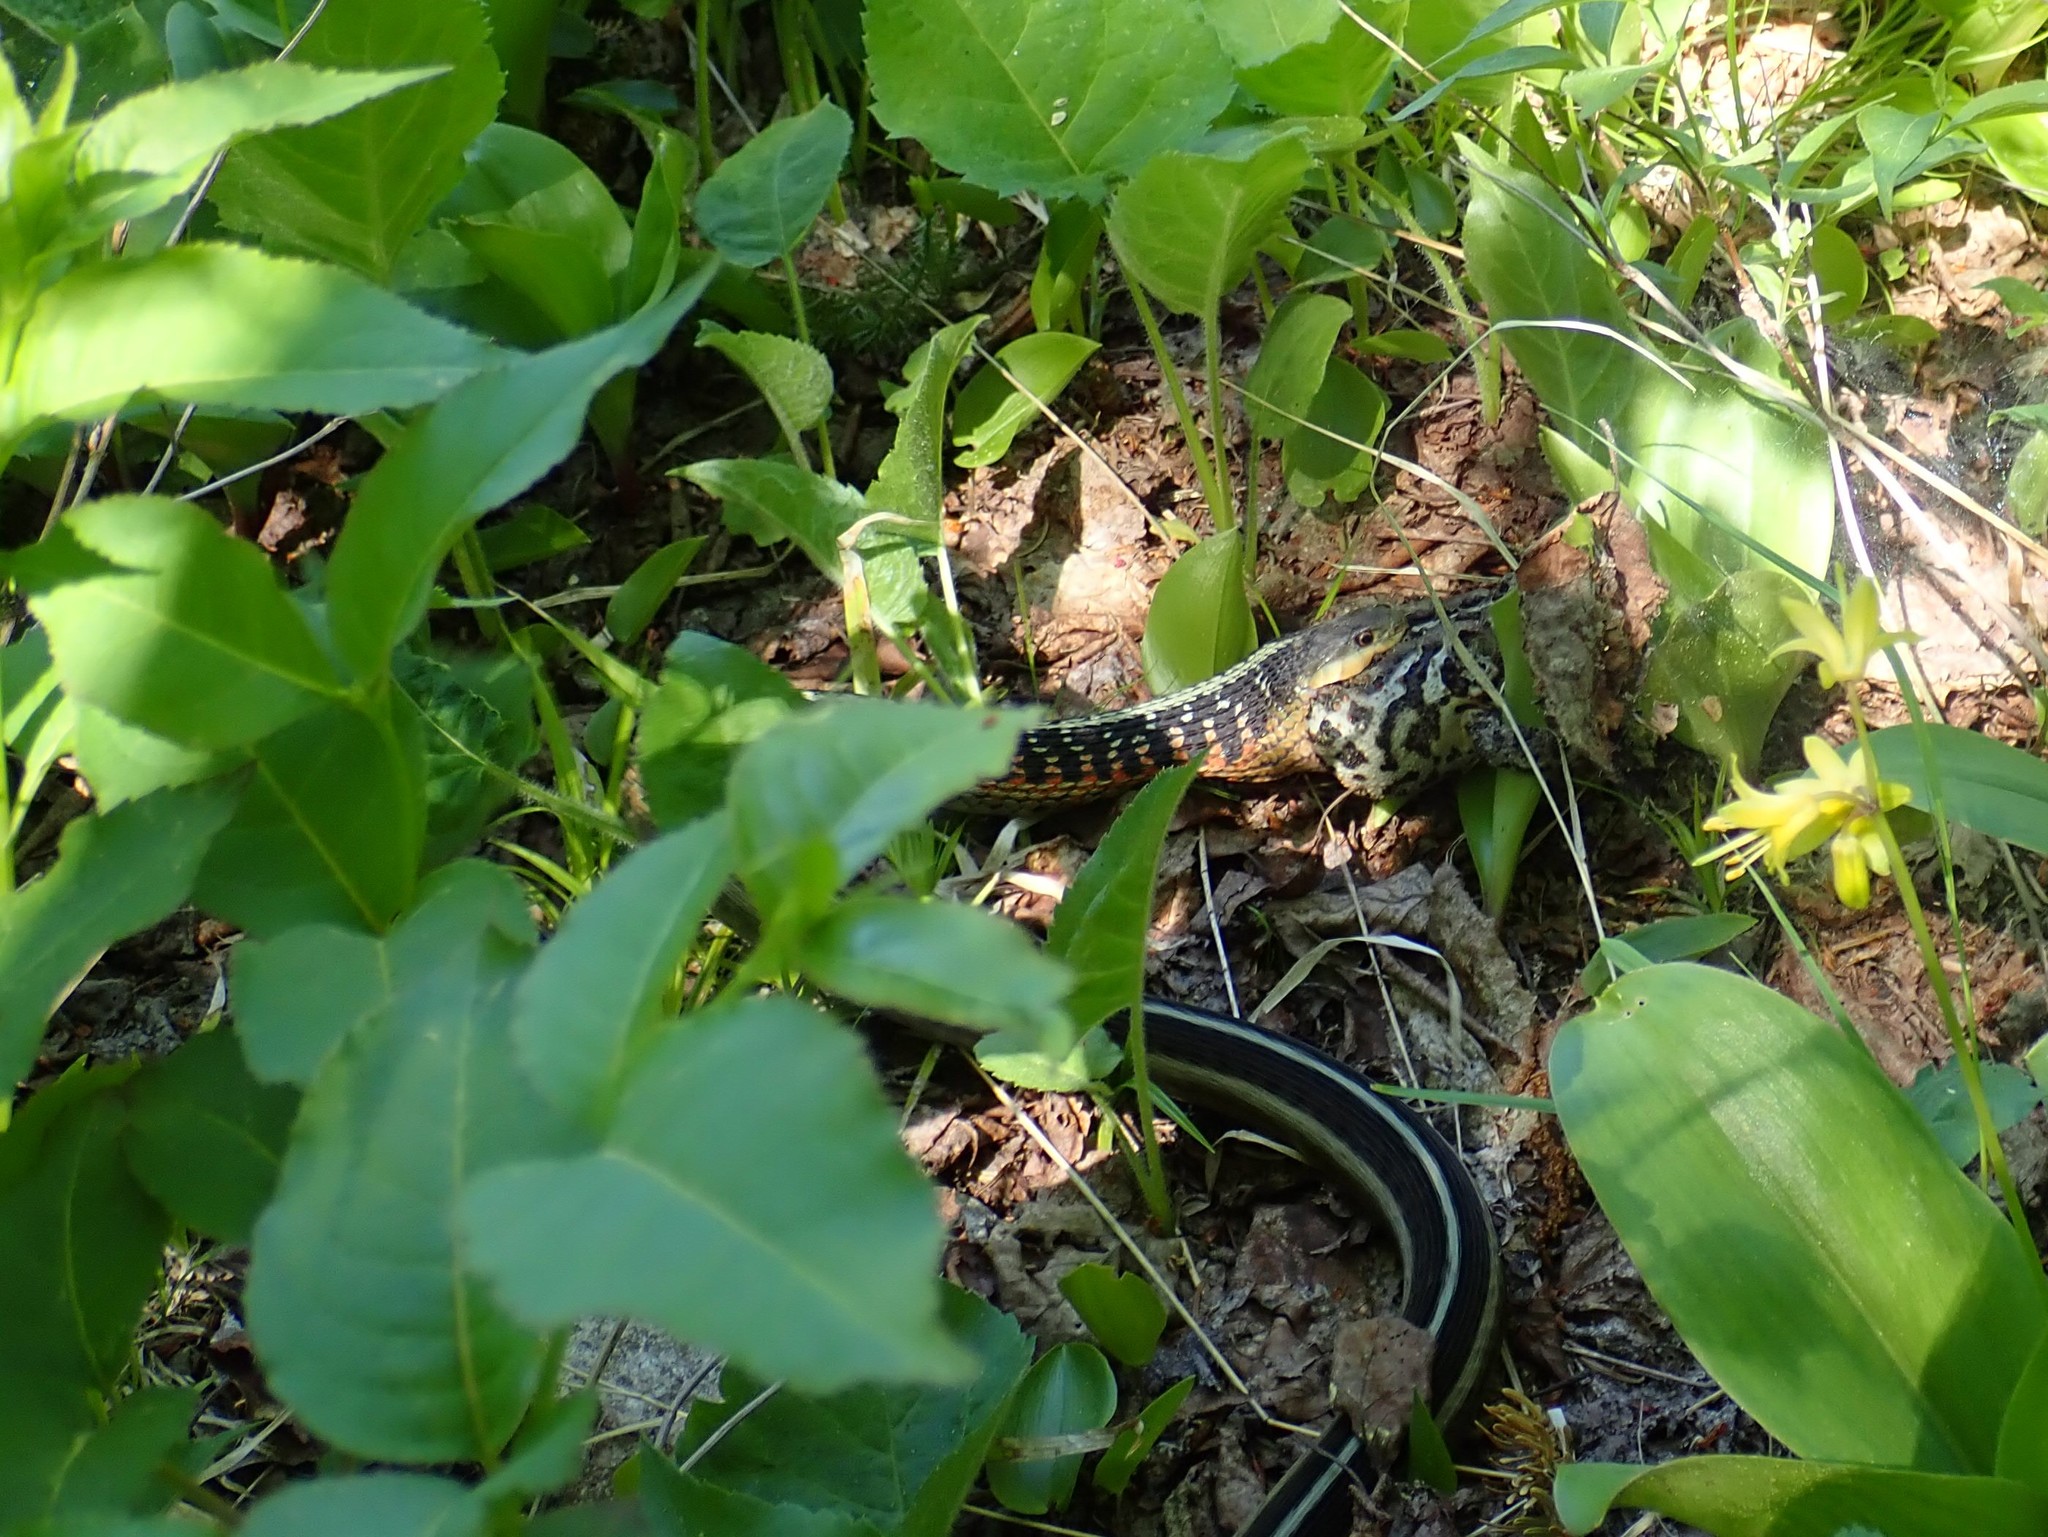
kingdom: Animalia
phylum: Chordata
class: Squamata
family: Colubridae
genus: Thamnophis
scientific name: Thamnophis sirtalis
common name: Common garter snake
